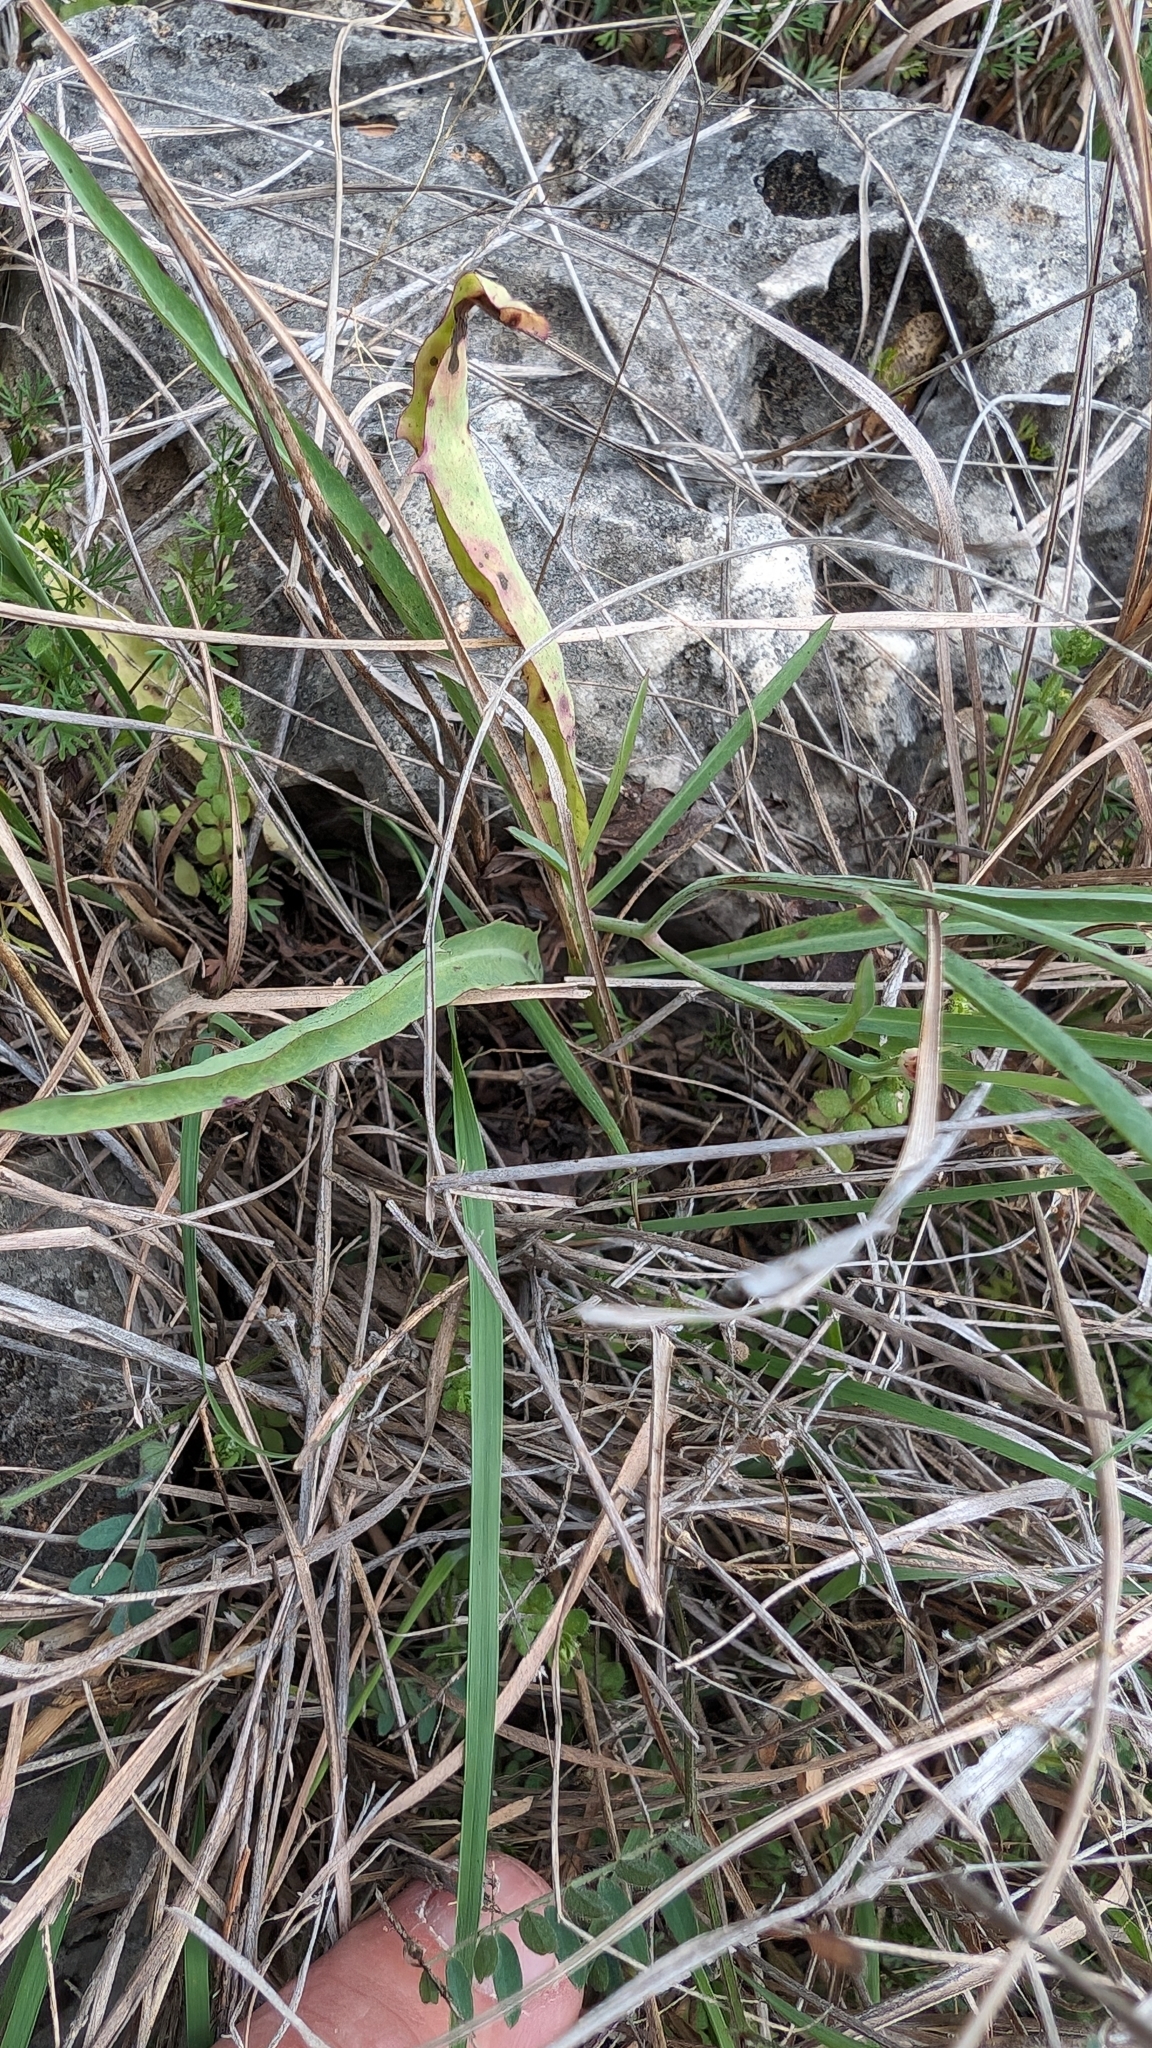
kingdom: Plantae
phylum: Tracheophyta
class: Magnoliopsida
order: Asterales
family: Asteraceae
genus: Pinaropappus
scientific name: Pinaropappus roseus
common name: Rock-lettuce
